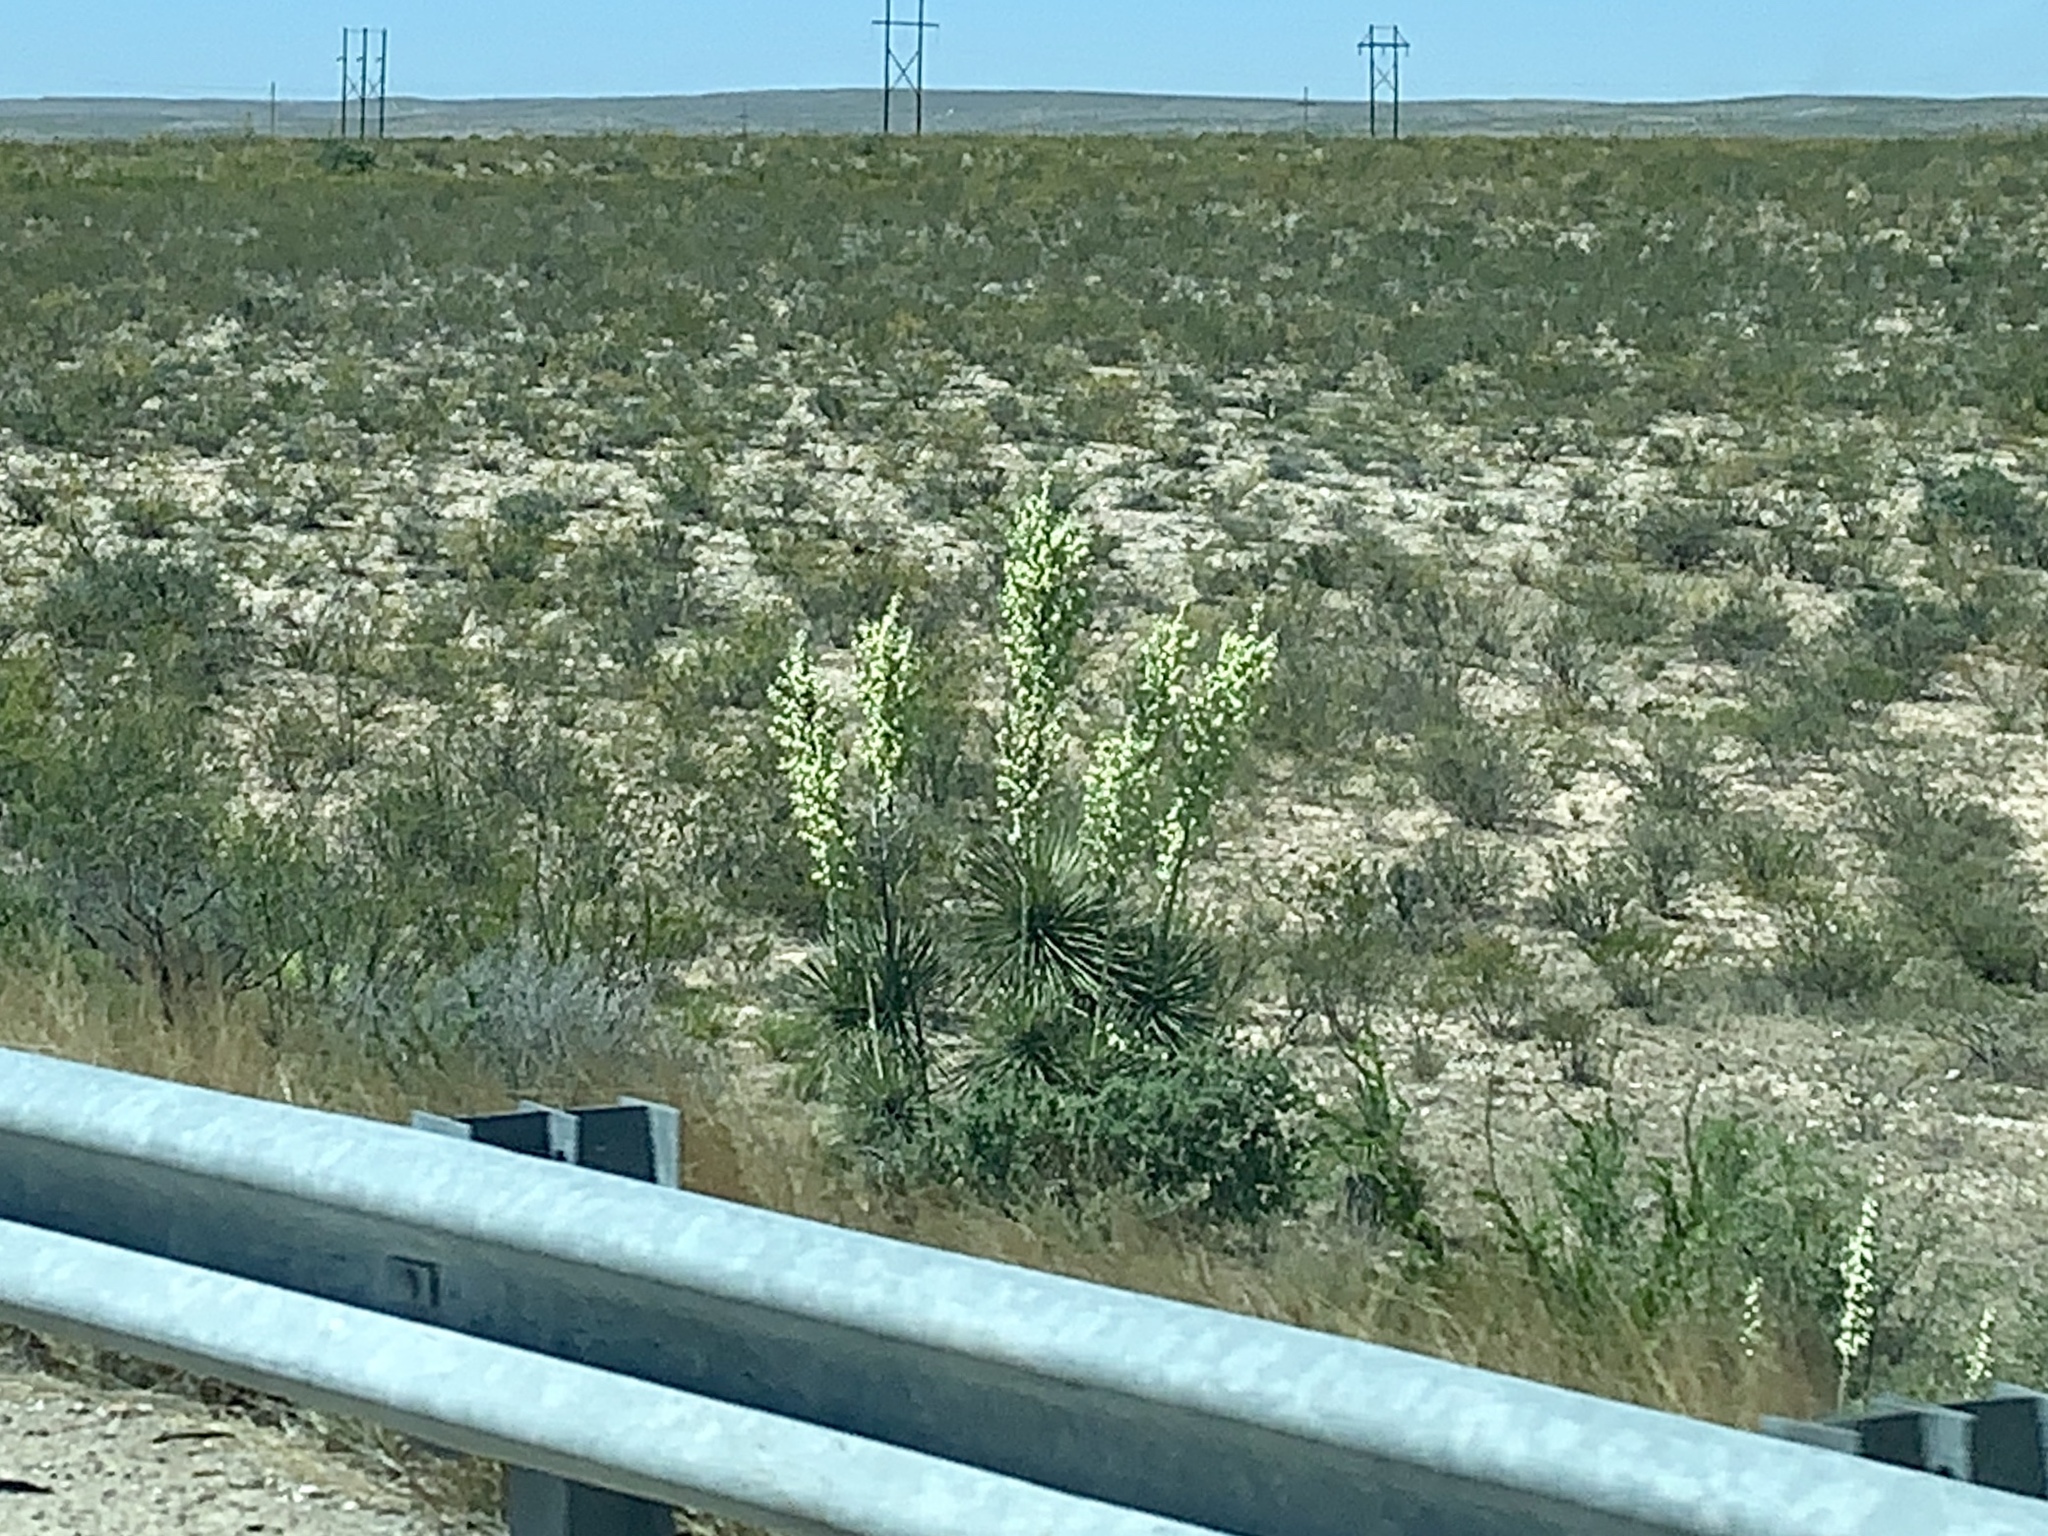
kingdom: Plantae
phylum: Tracheophyta
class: Liliopsida
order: Asparagales
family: Asparagaceae
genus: Yucca
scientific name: Yucca campestris
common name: Plains yucca
